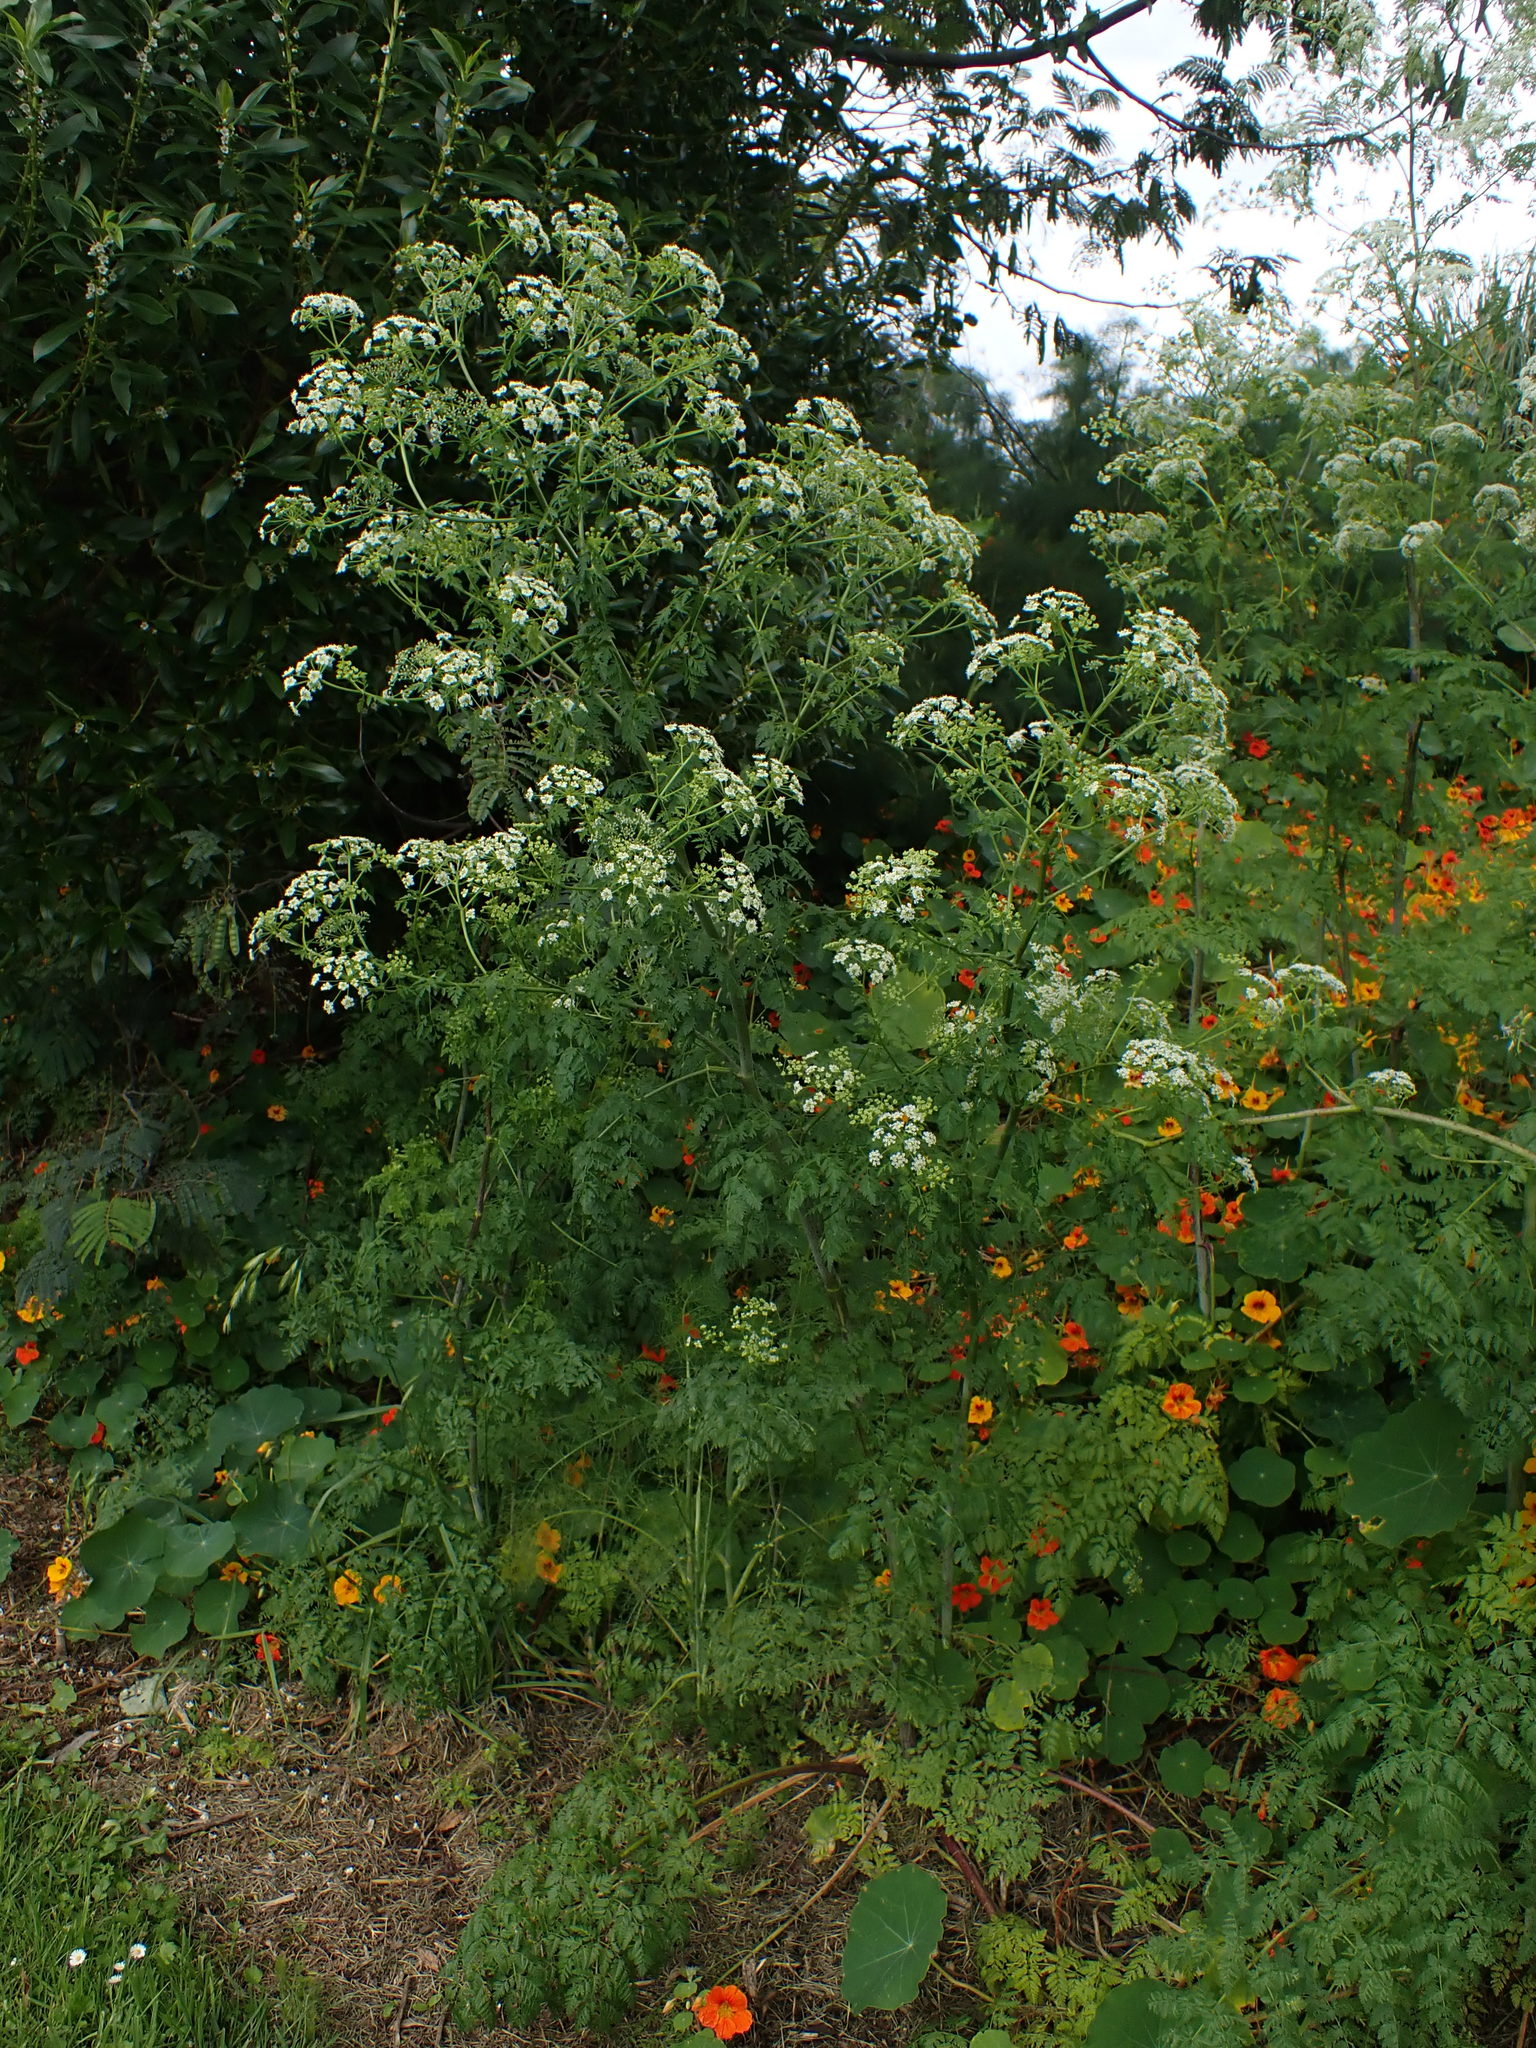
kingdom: Plantae
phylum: Tracheophyta
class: Magnoliopsida
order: Apiales
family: Apiaceae
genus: Conium
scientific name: Conium maculatum
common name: Hemlock
